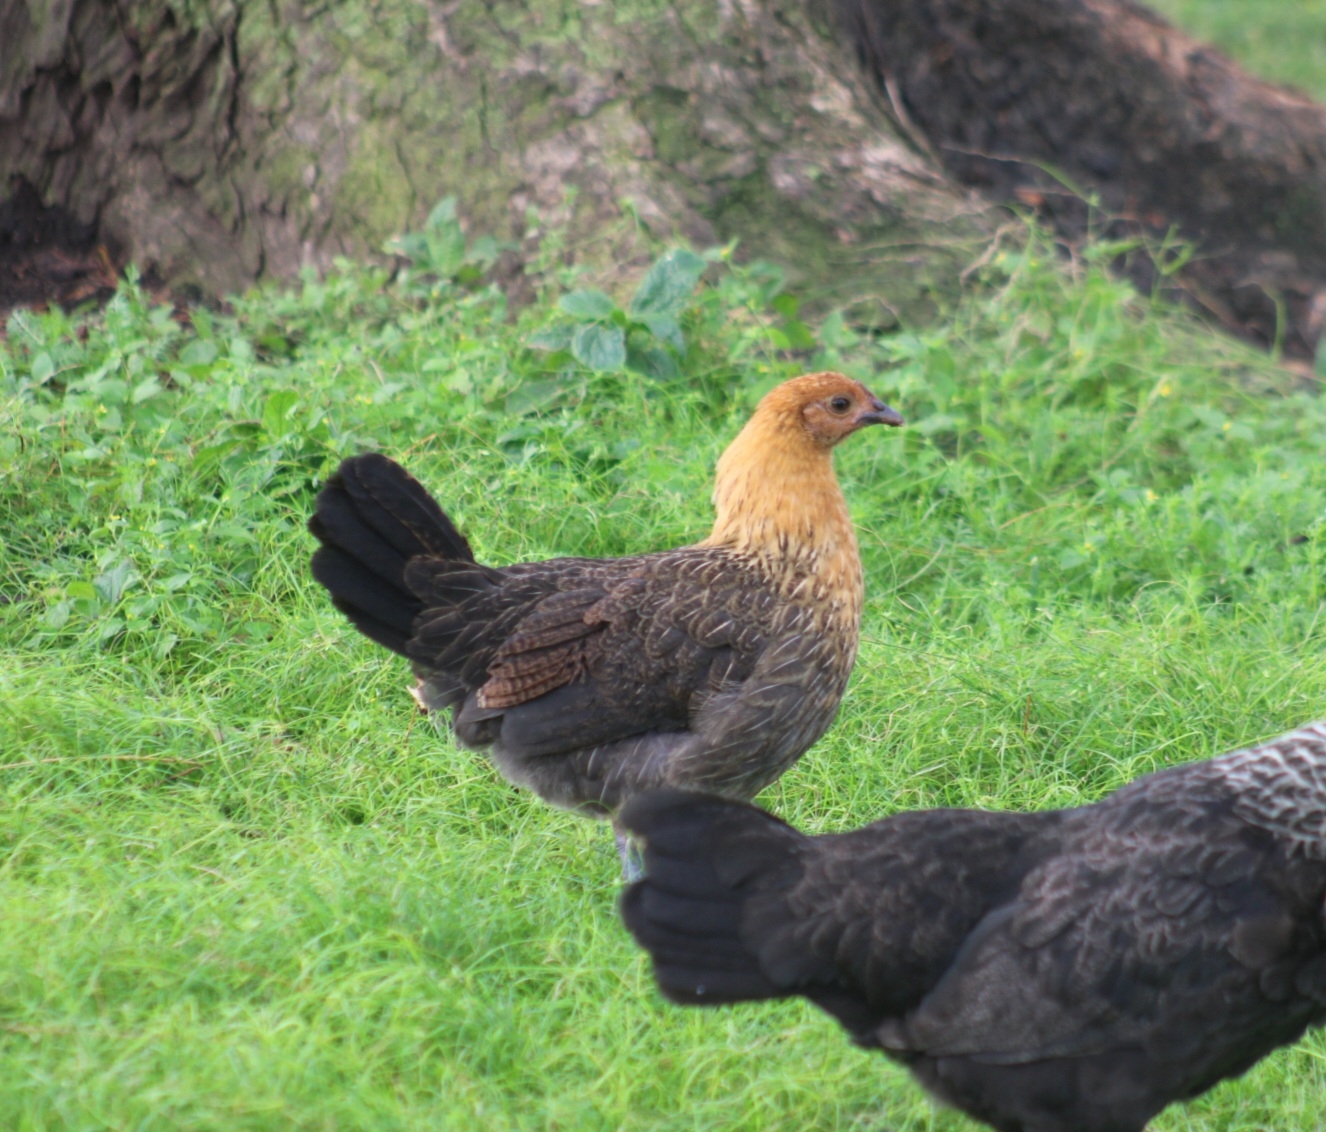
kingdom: Animalia
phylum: Chordata
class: Aves
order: Galliformes
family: Phasianidae
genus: Gallus
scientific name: Gallus gallus
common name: Red junglefowl
